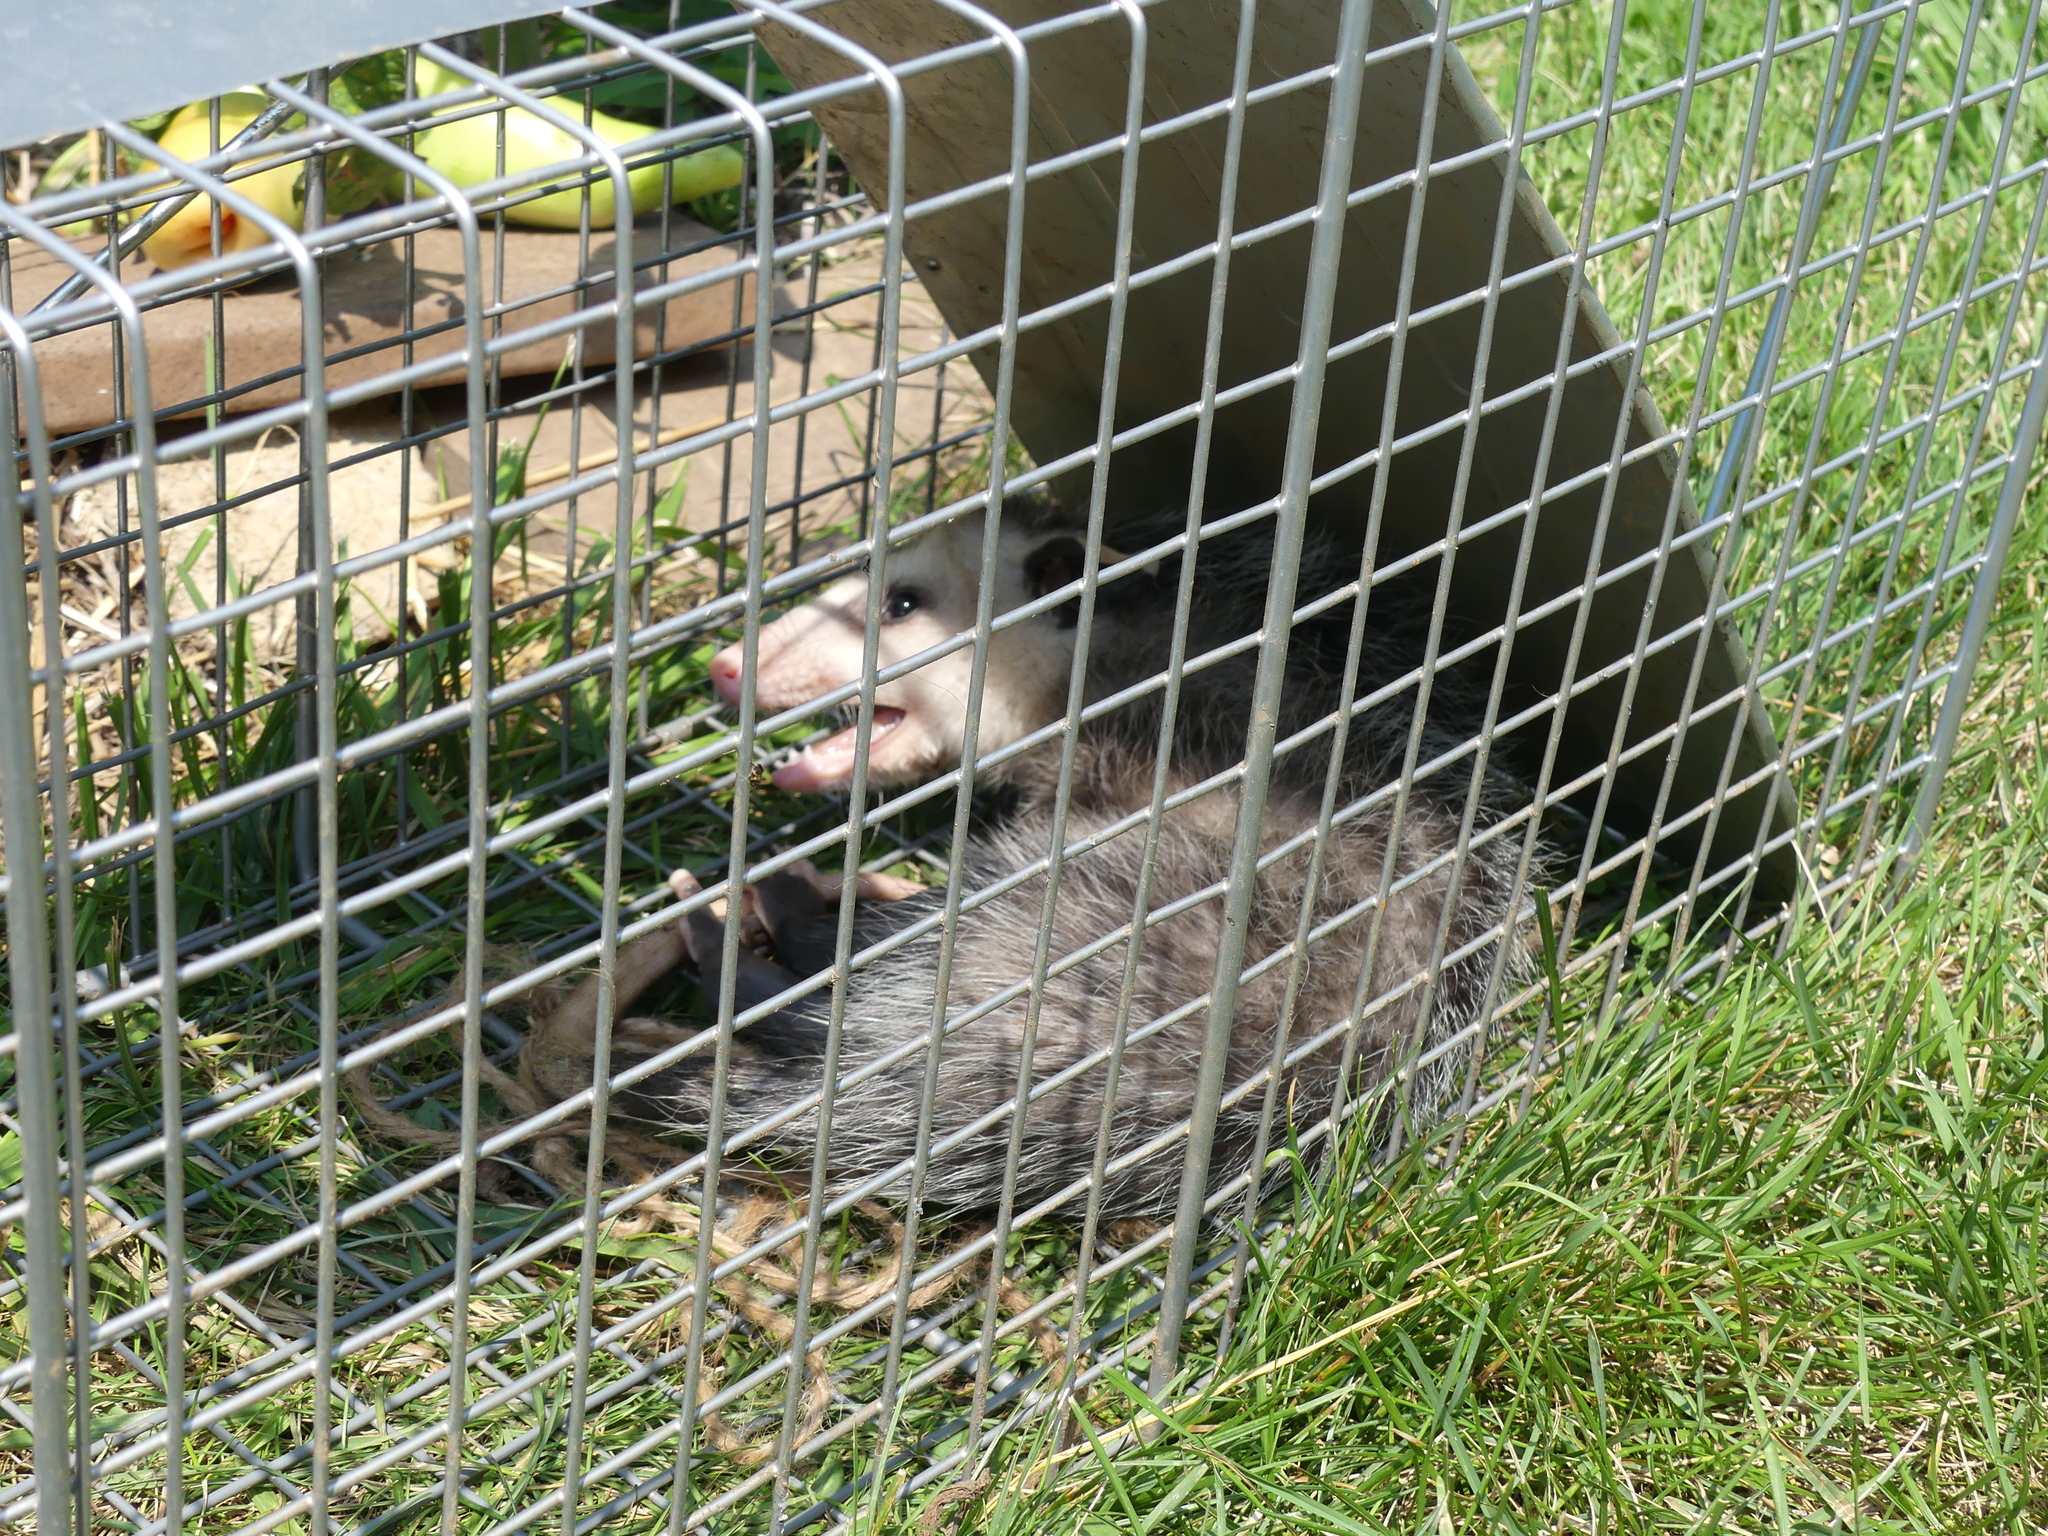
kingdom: Animalia
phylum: Chordata
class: Mammalia
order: Didelphimorphia
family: Didelphidae
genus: Didelphis
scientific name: Didelphis virginiana
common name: Virginia opossum
